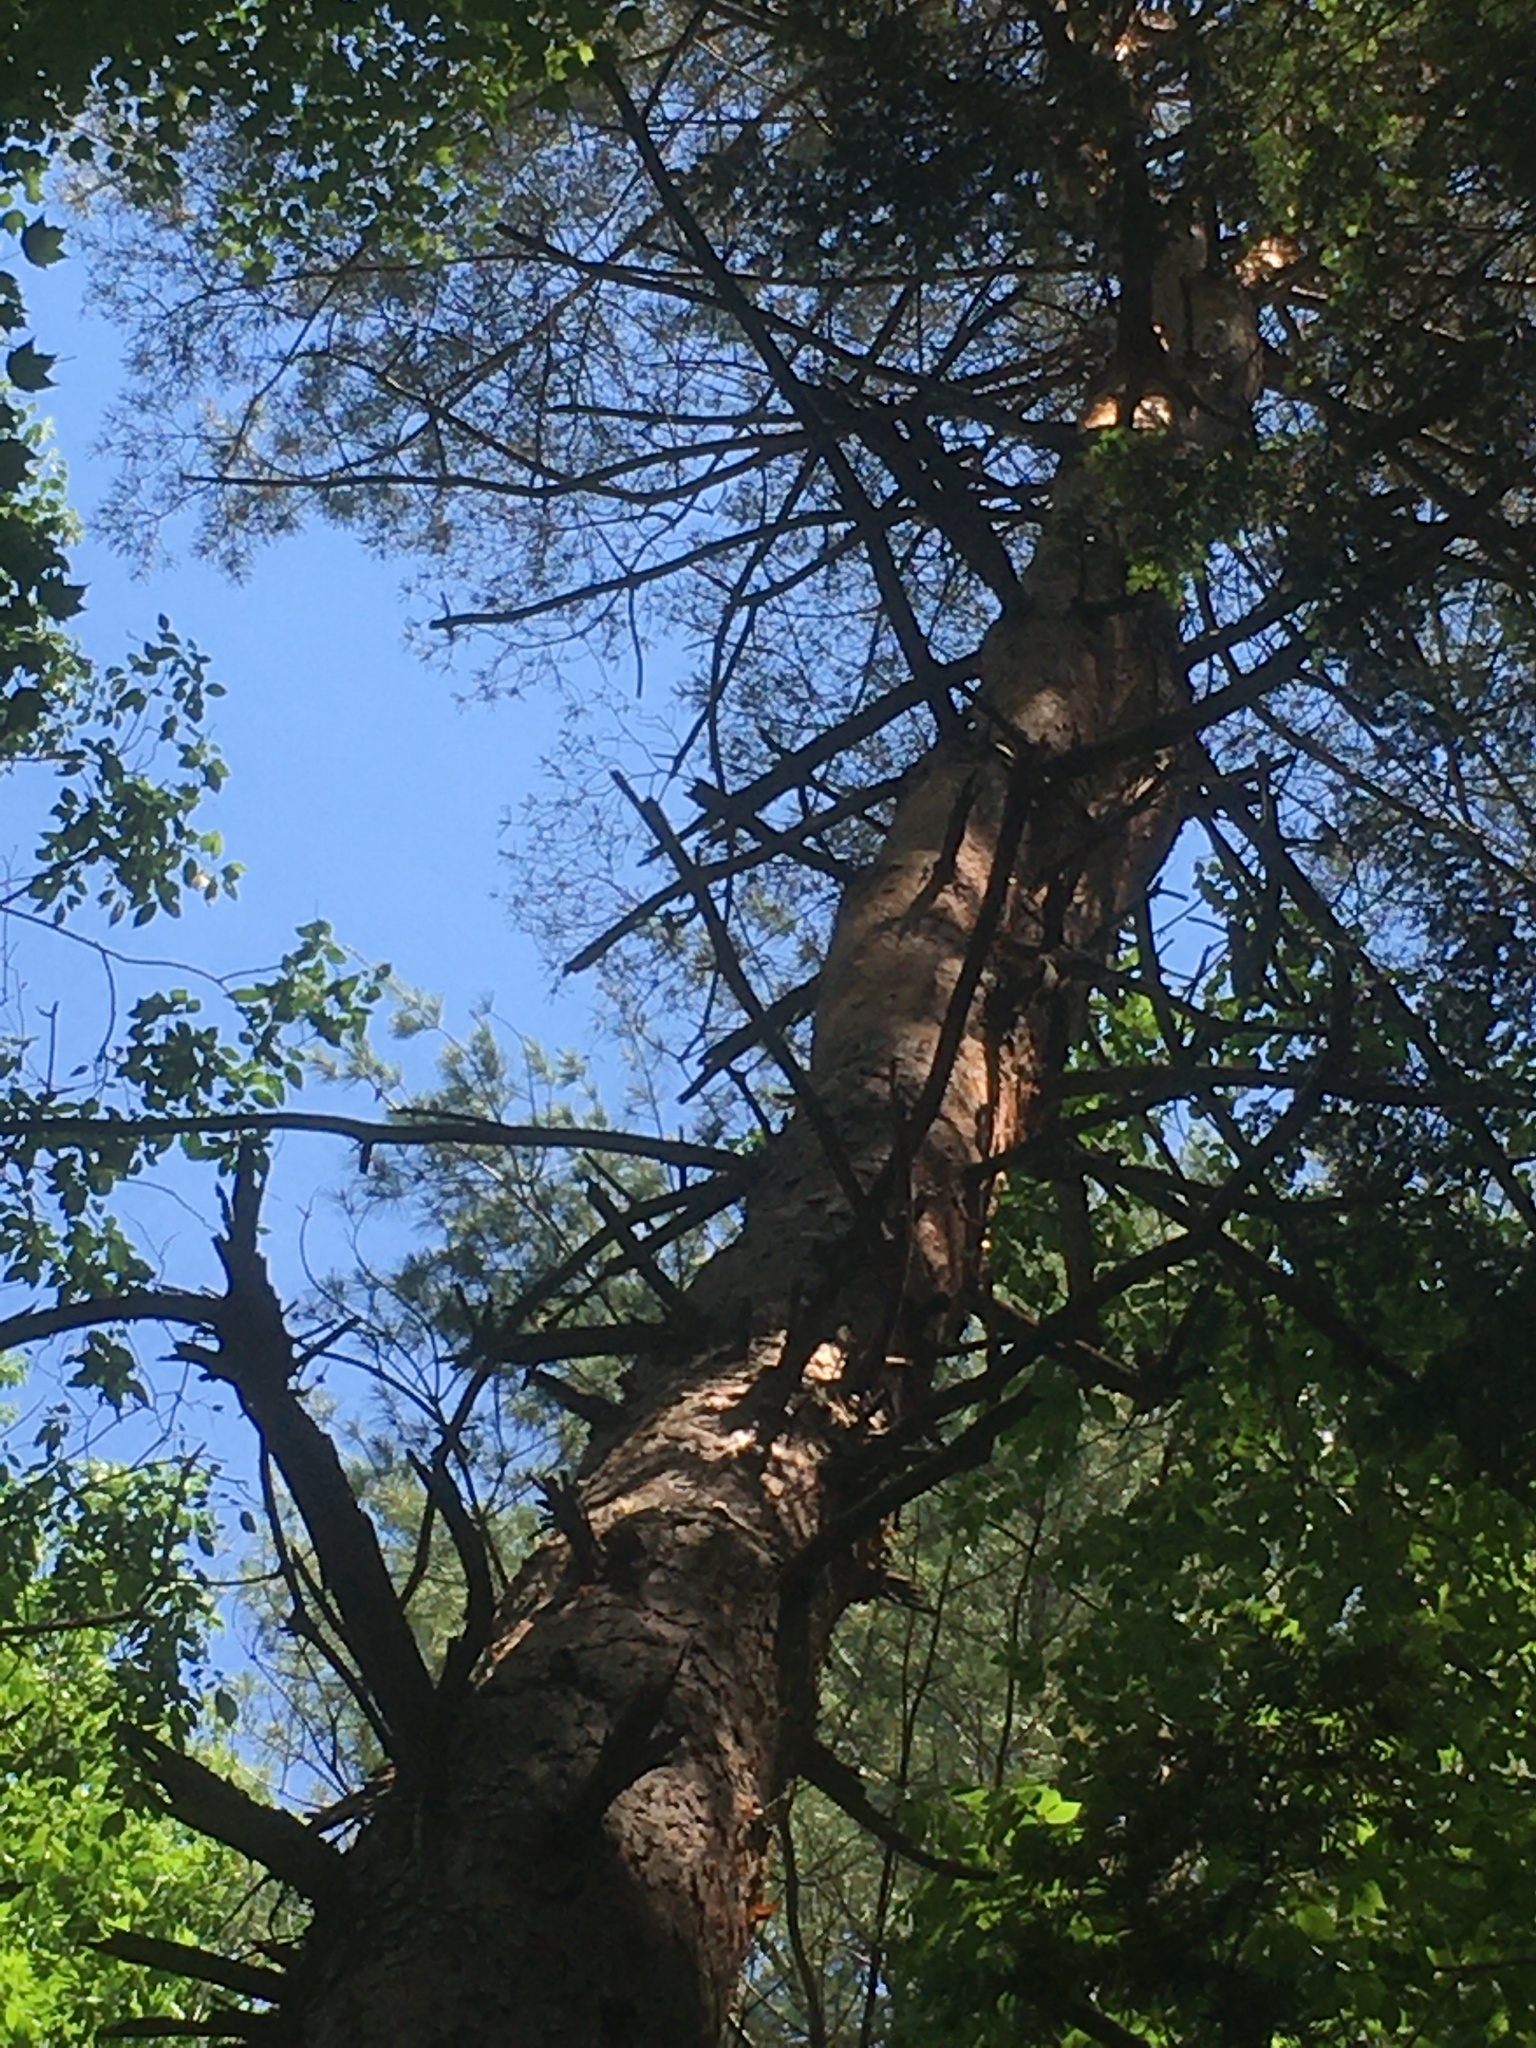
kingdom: Plantae
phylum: Tracheophyta
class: Pinopsida
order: Pinales
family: Pinaceae
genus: Pinus
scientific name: Pinus sylvestris
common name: Scots pine
